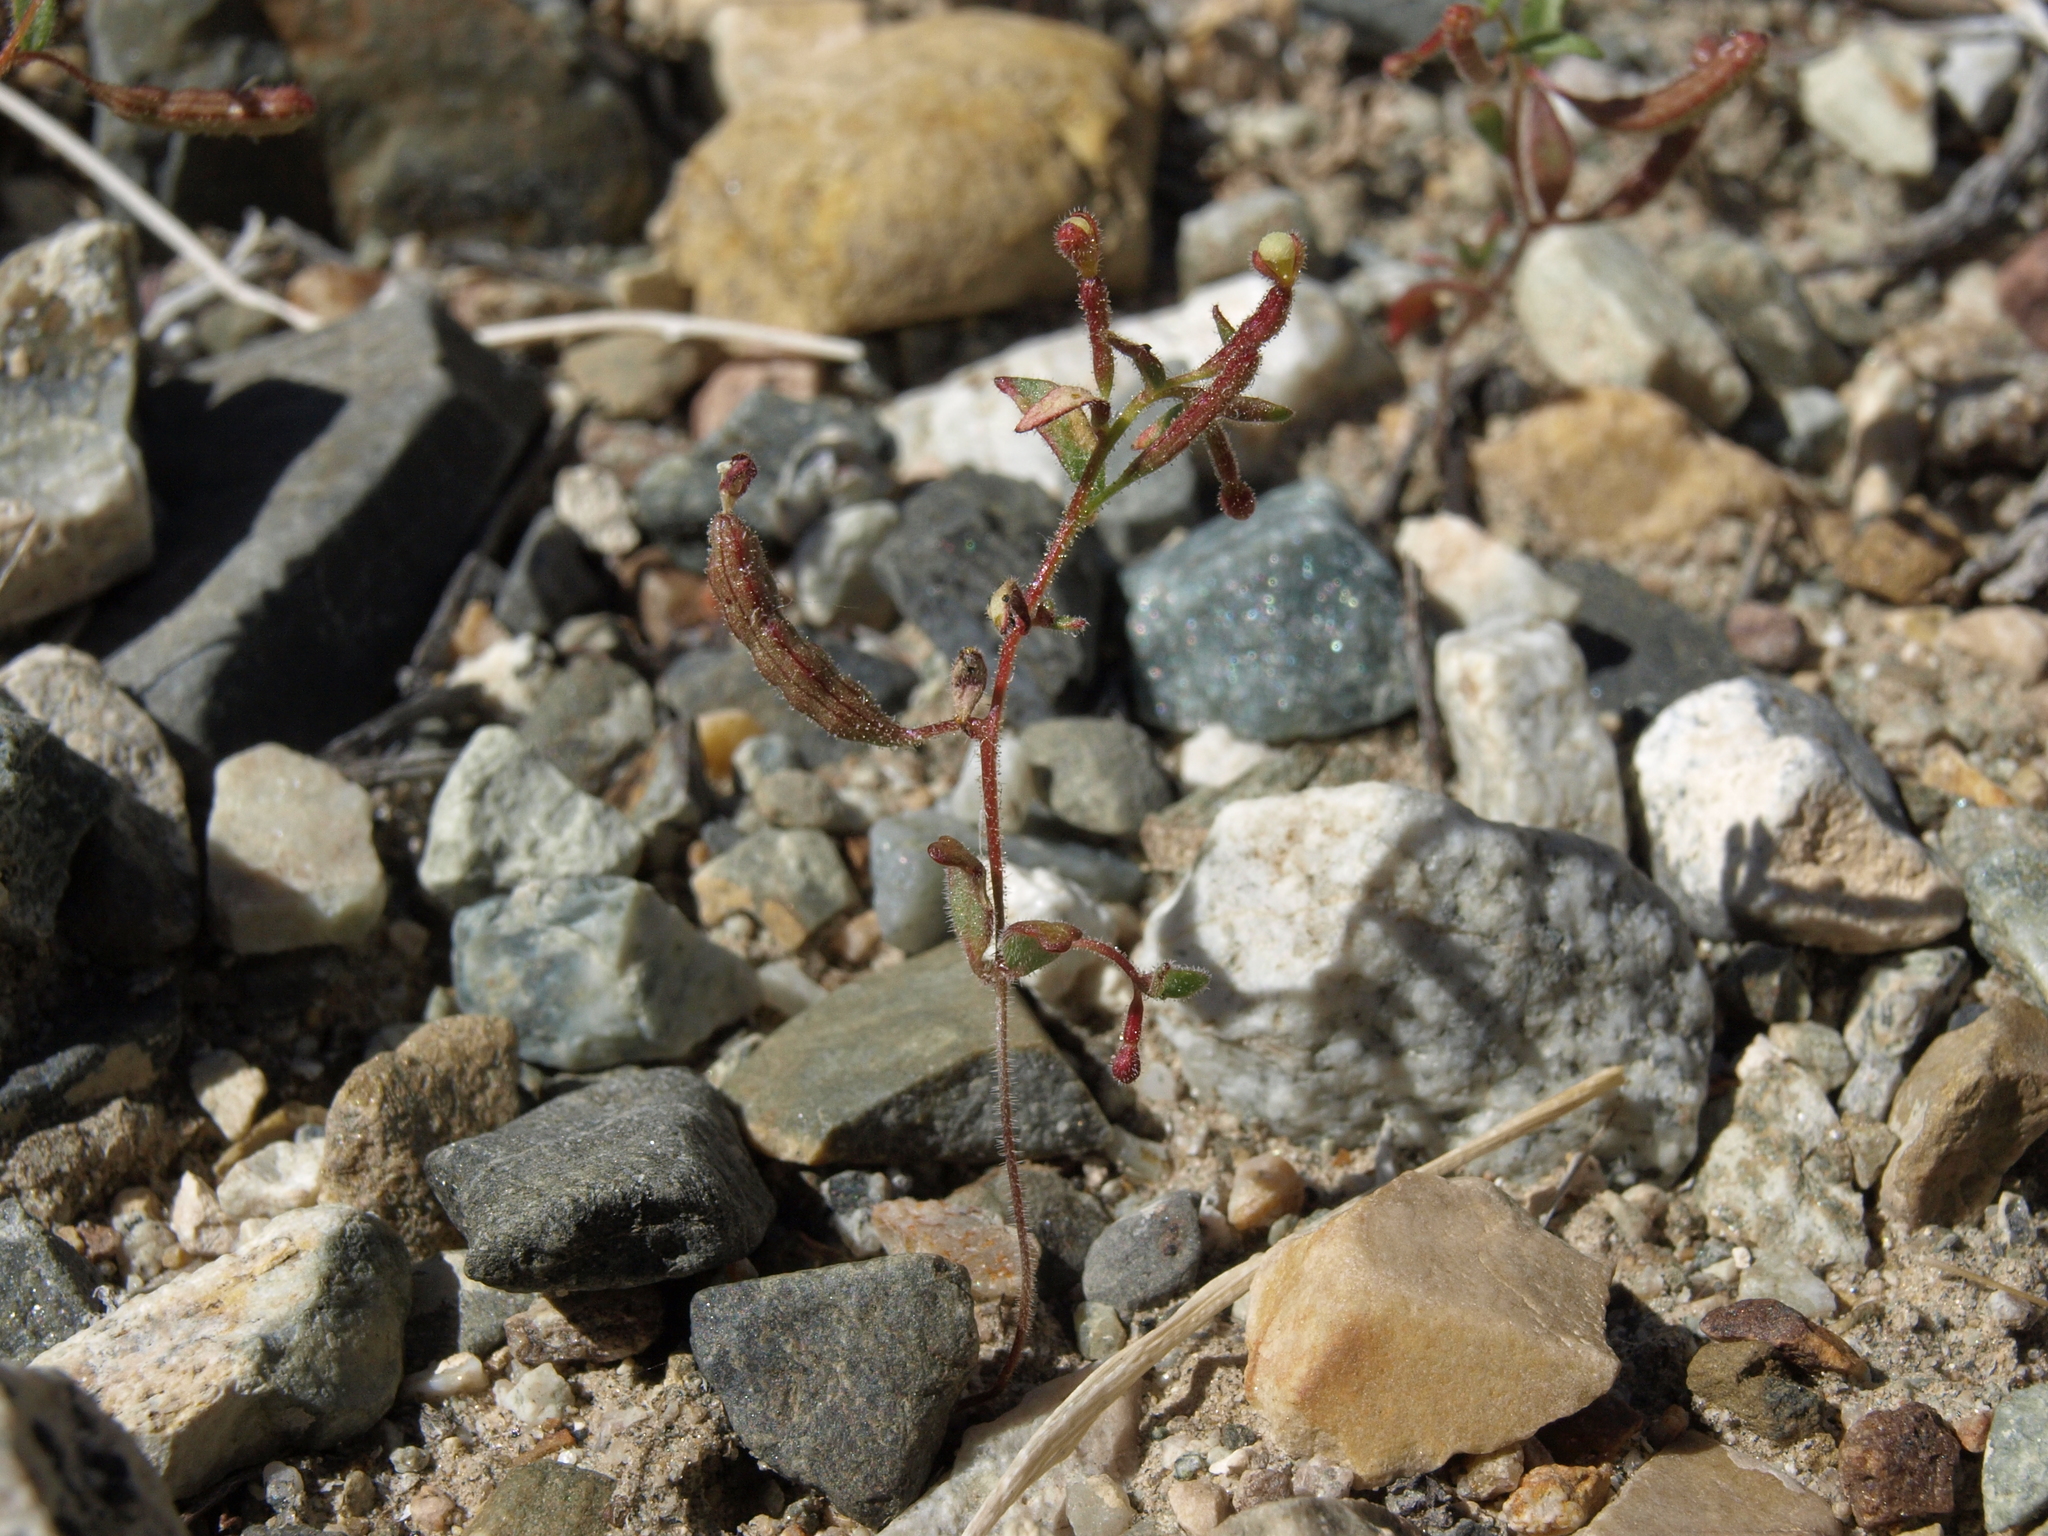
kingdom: Plantae
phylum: Tracheophyta
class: Magnoliopsida
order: Myrtales
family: Onagraceae
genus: Chylismiella
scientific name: Chylismiella pterosperma
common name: Wingfruit suncup
